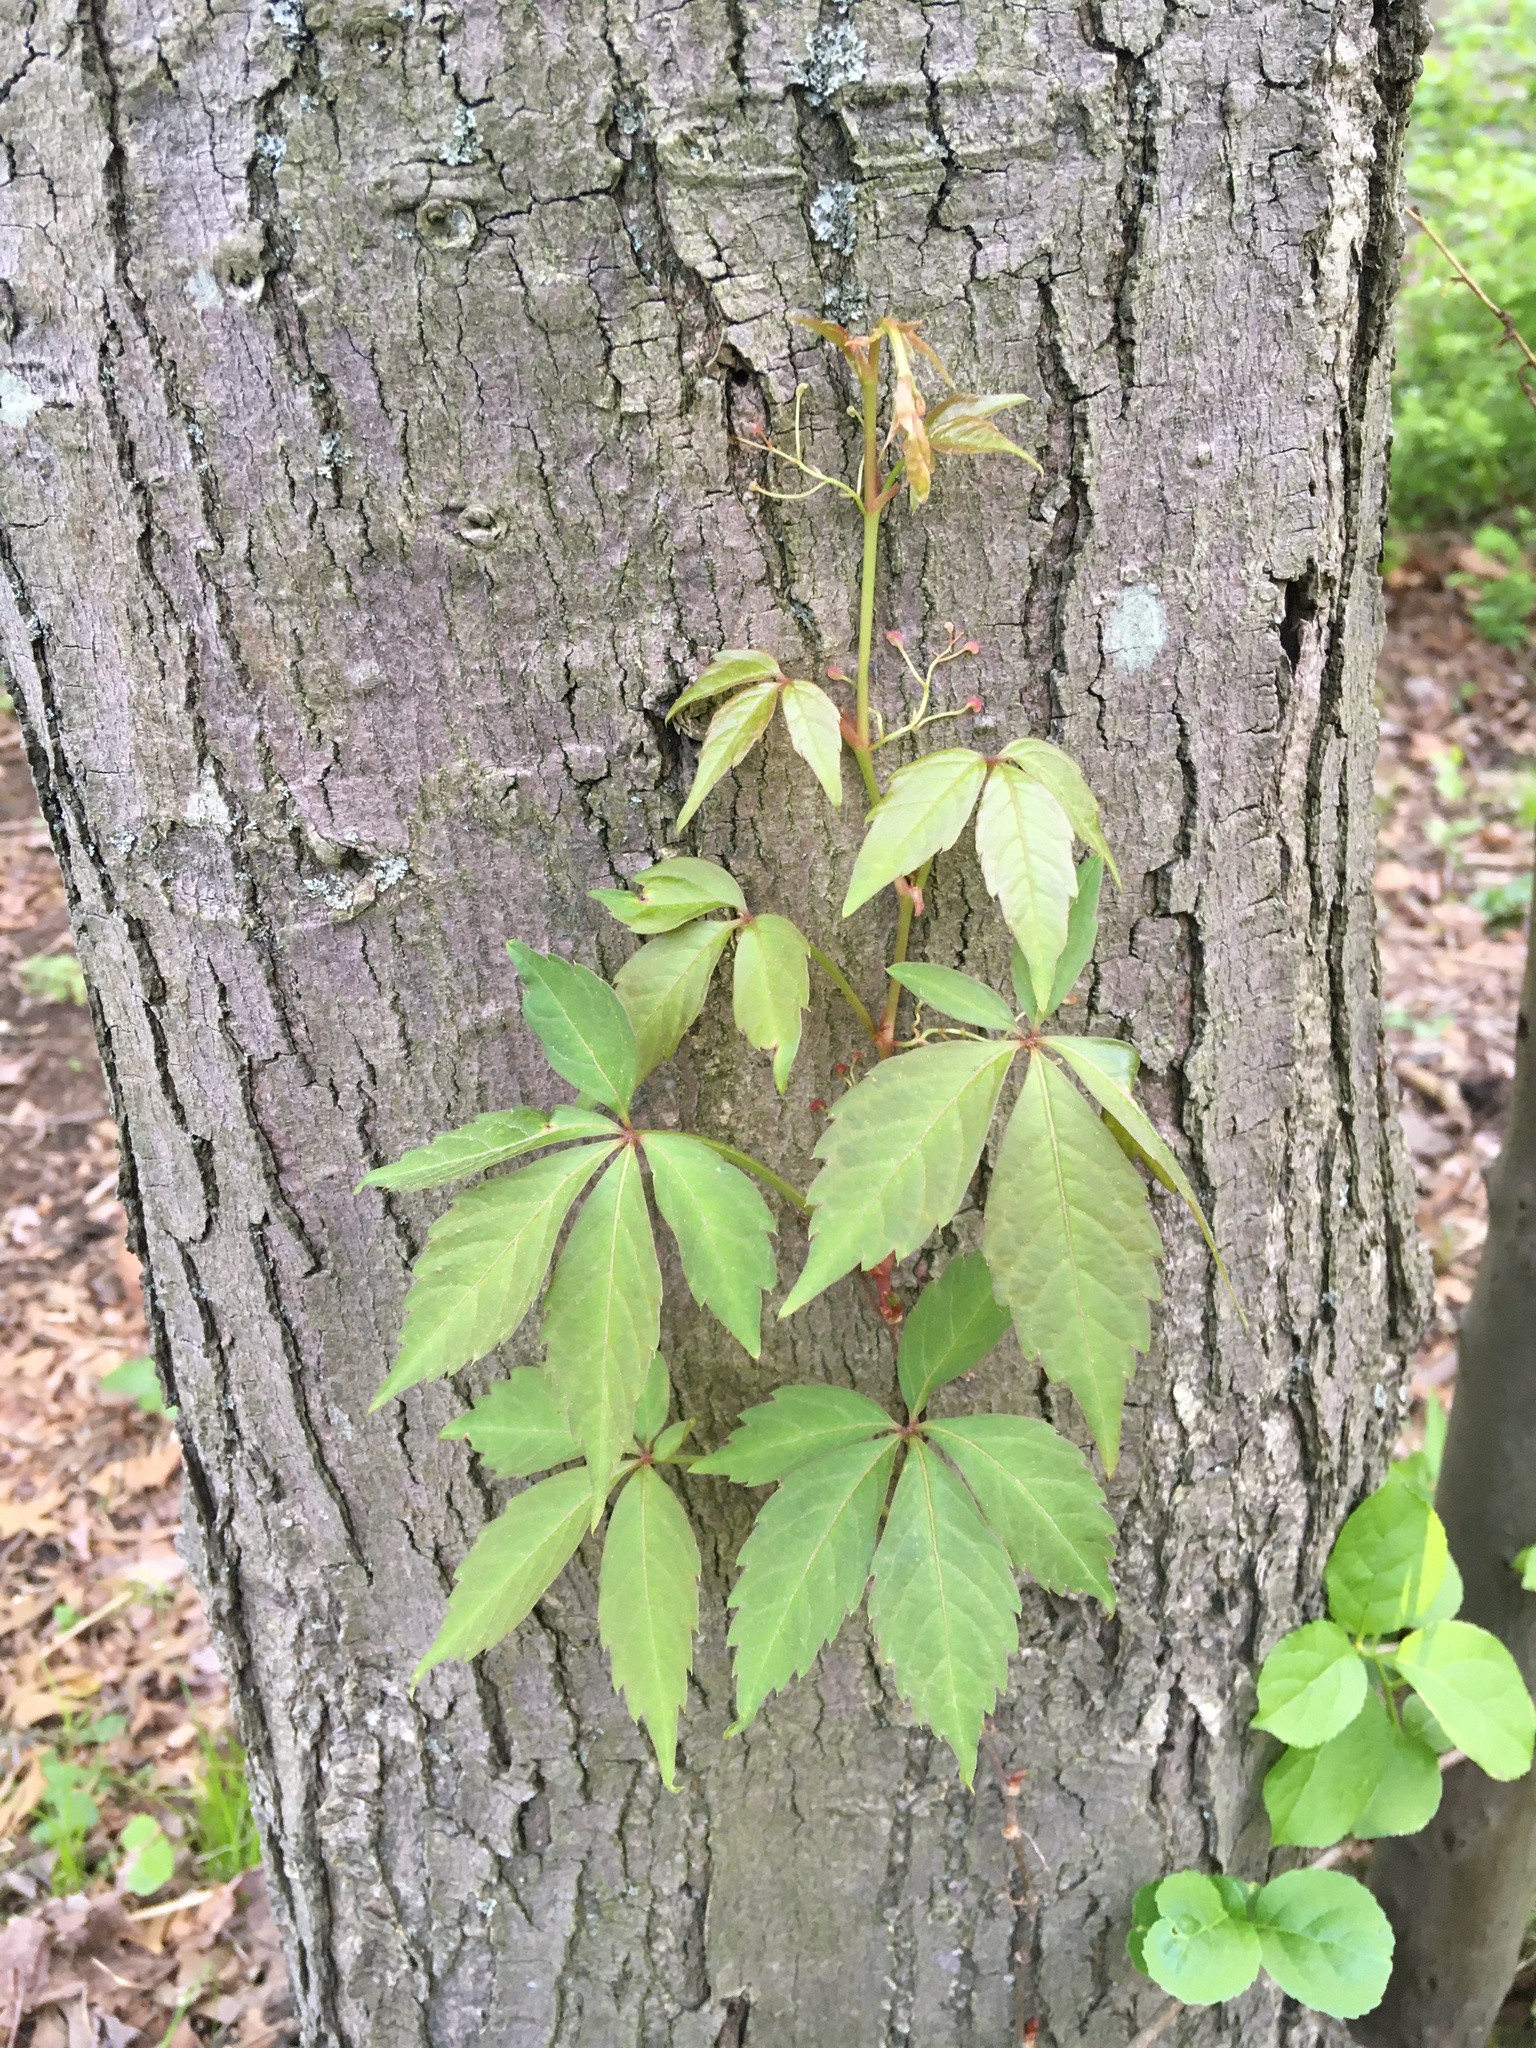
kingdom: Plantae
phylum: Tracheophyta
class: Magnoliopsida
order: Vitales
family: Vitaceae
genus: Parthenocissus
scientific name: Parthenocissus quinquefolia
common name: Virginia-creeper
